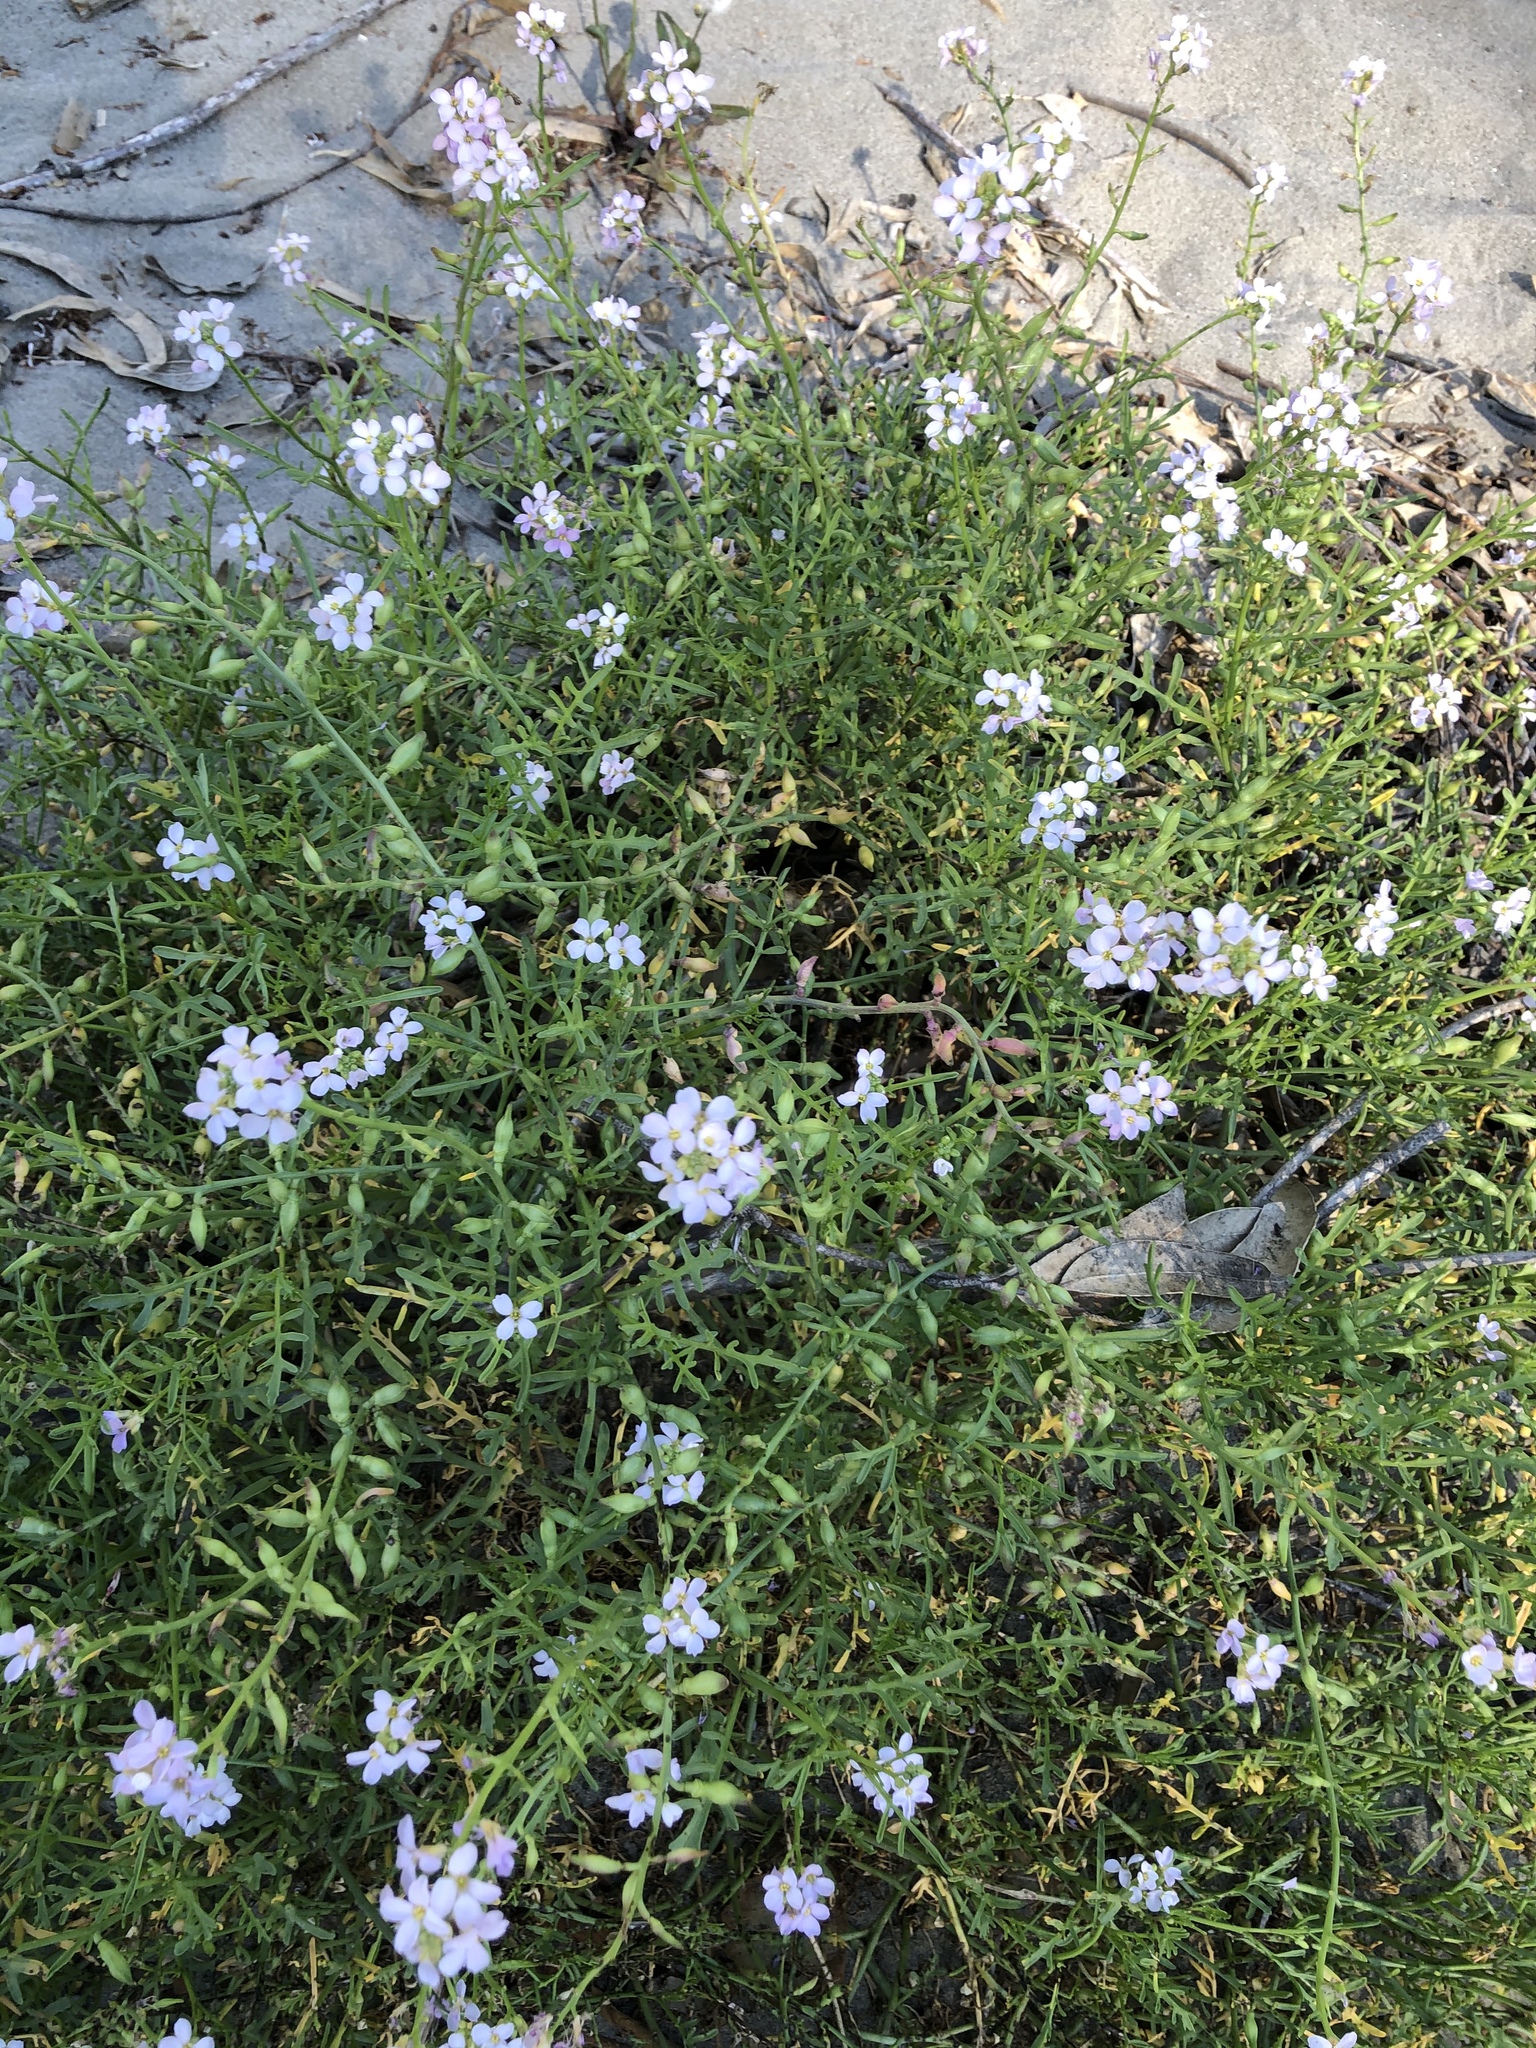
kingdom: Plantae
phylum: Tracheophyta
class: Magnoliopsida
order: Brassicales
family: Brassicaceae
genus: Cakile
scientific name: Cakile maritima
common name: Sea rocket
